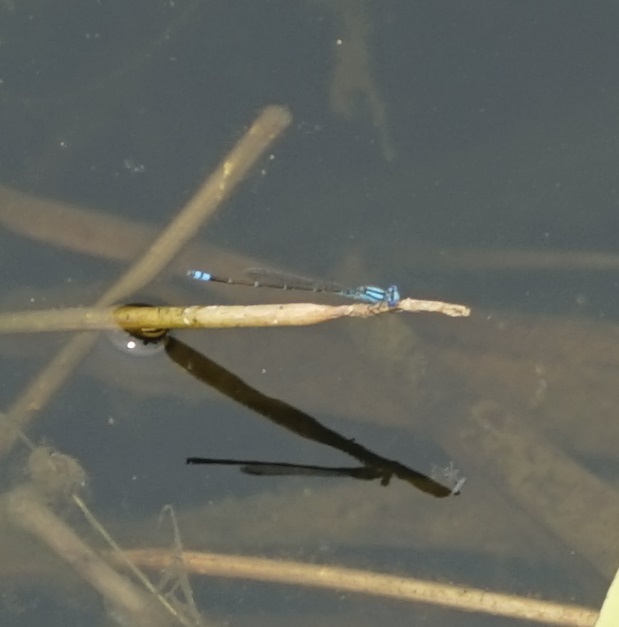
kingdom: Animalia
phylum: Arthropoda
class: Insecta
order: Odonata
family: Coenagrionidae
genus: Pseudagrion
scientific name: Pseudagrion microcephalum
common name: Blue riverdamsel
